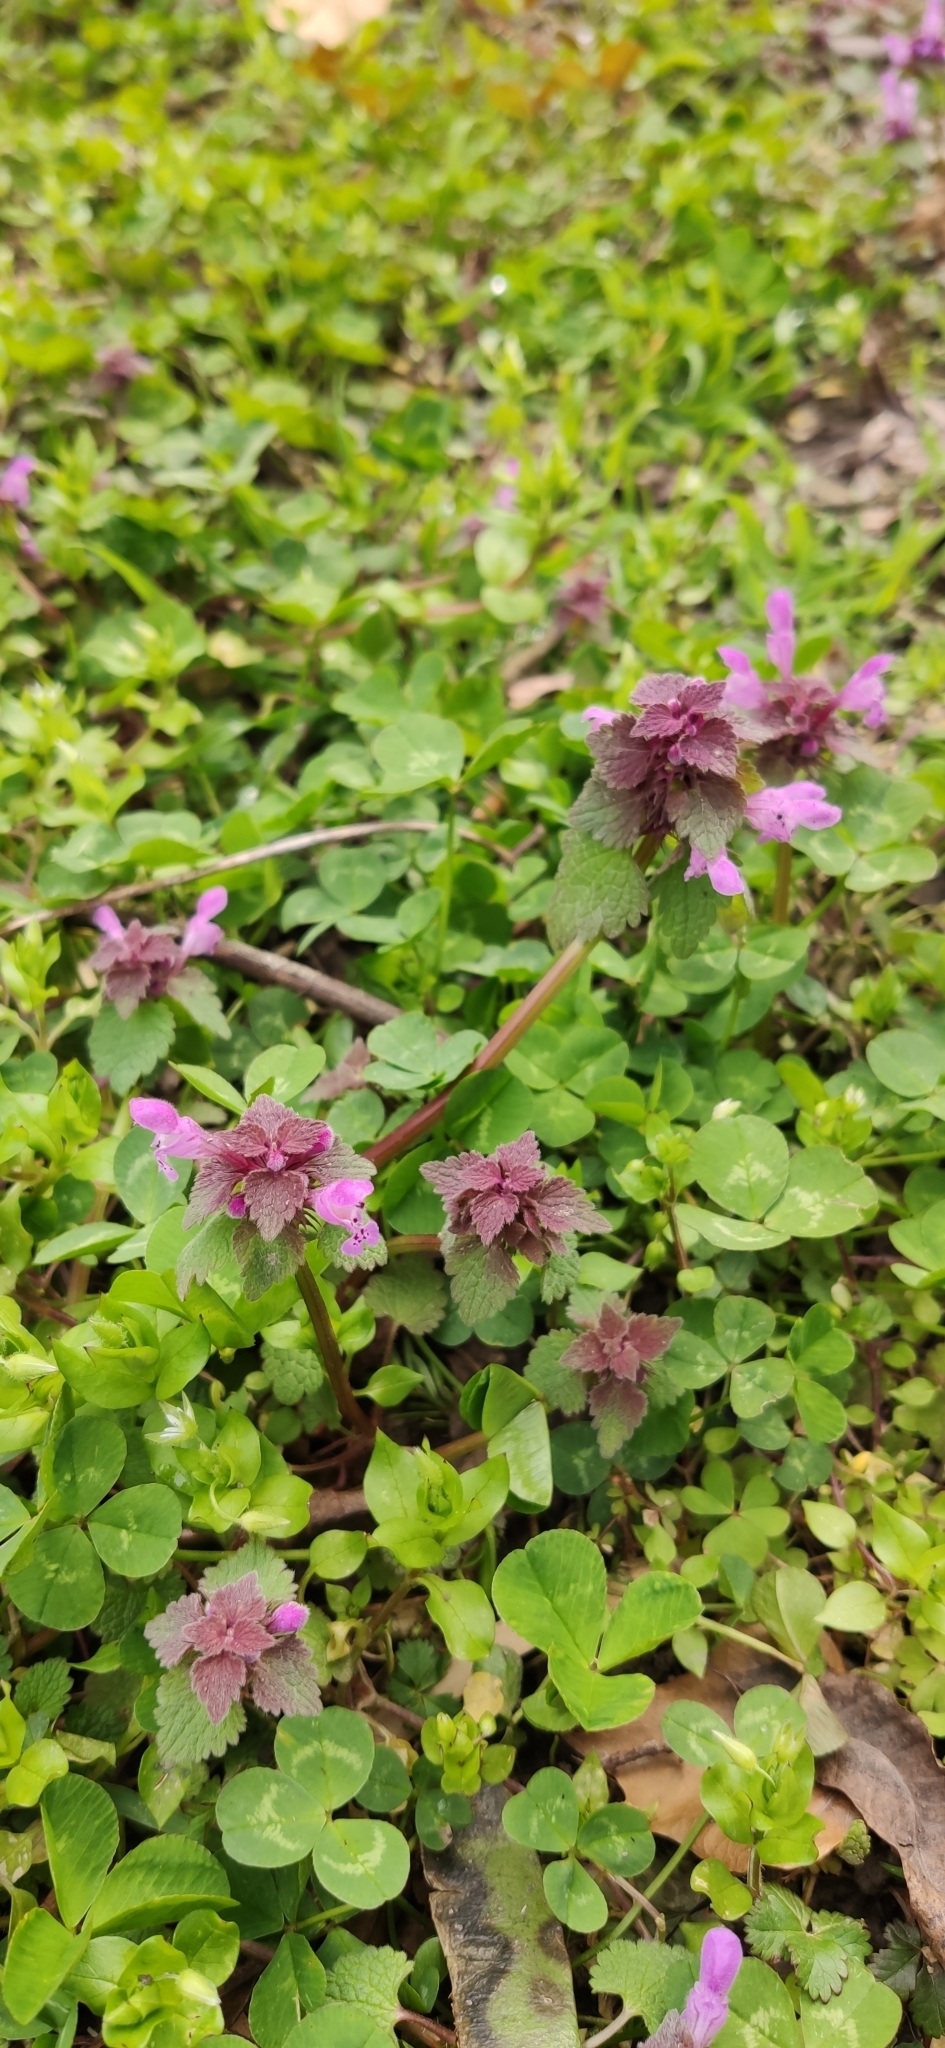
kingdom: Plantae
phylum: Tracheophyta
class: Magnoliopsida
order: Lamiales
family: Lamiaceae
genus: Lamium
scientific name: Lamium purpureum
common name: Red dead-nettle
